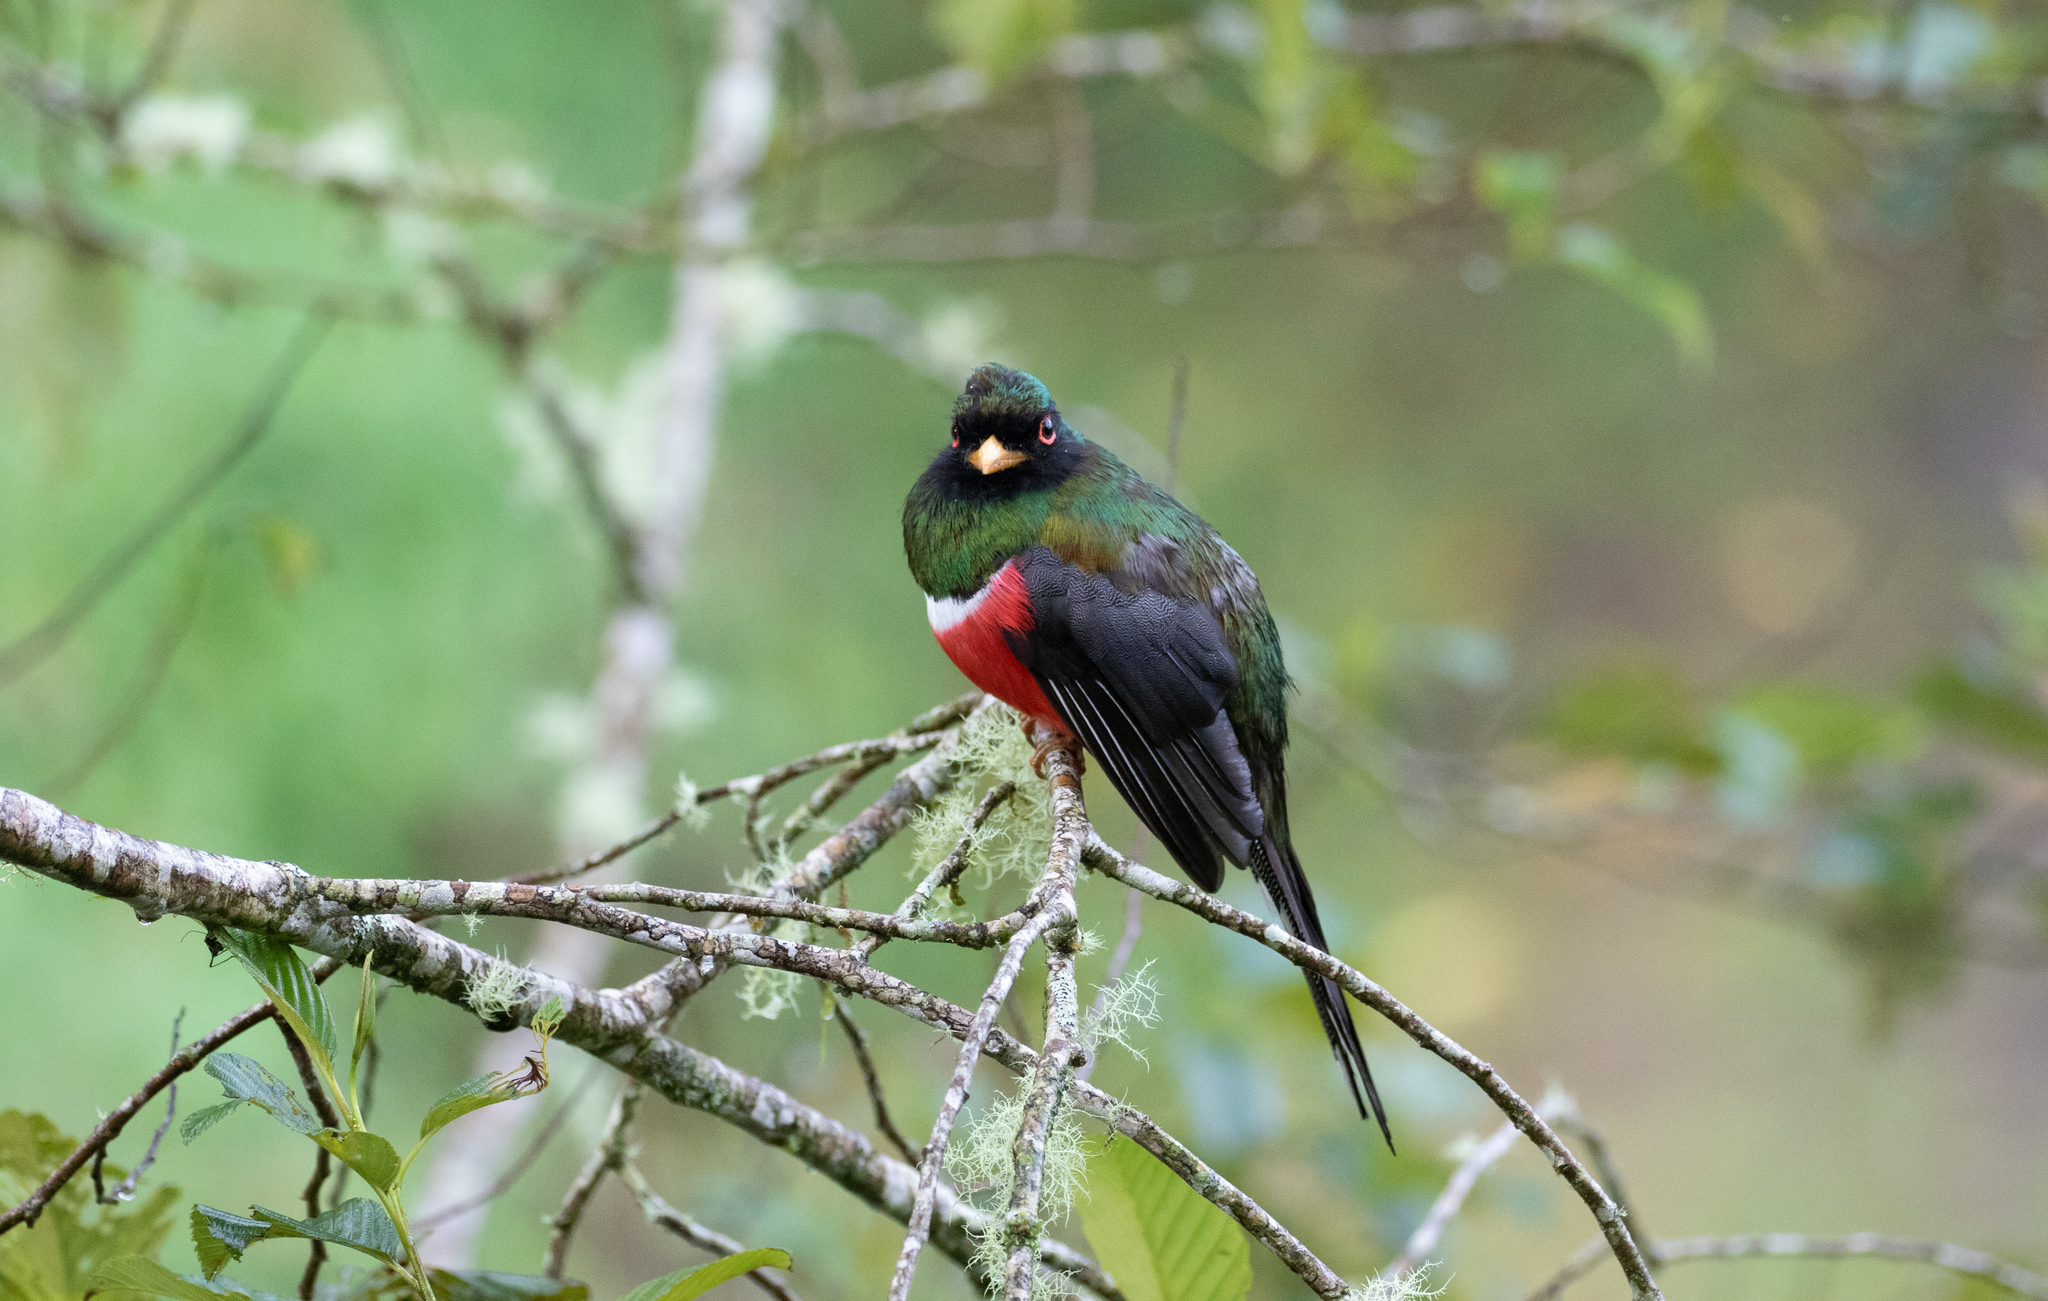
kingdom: Animalia
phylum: Chordata
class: Aves
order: Trogoniformes
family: Trogonidae
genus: Trogon
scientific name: Trogon personatus
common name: Masked trogon
